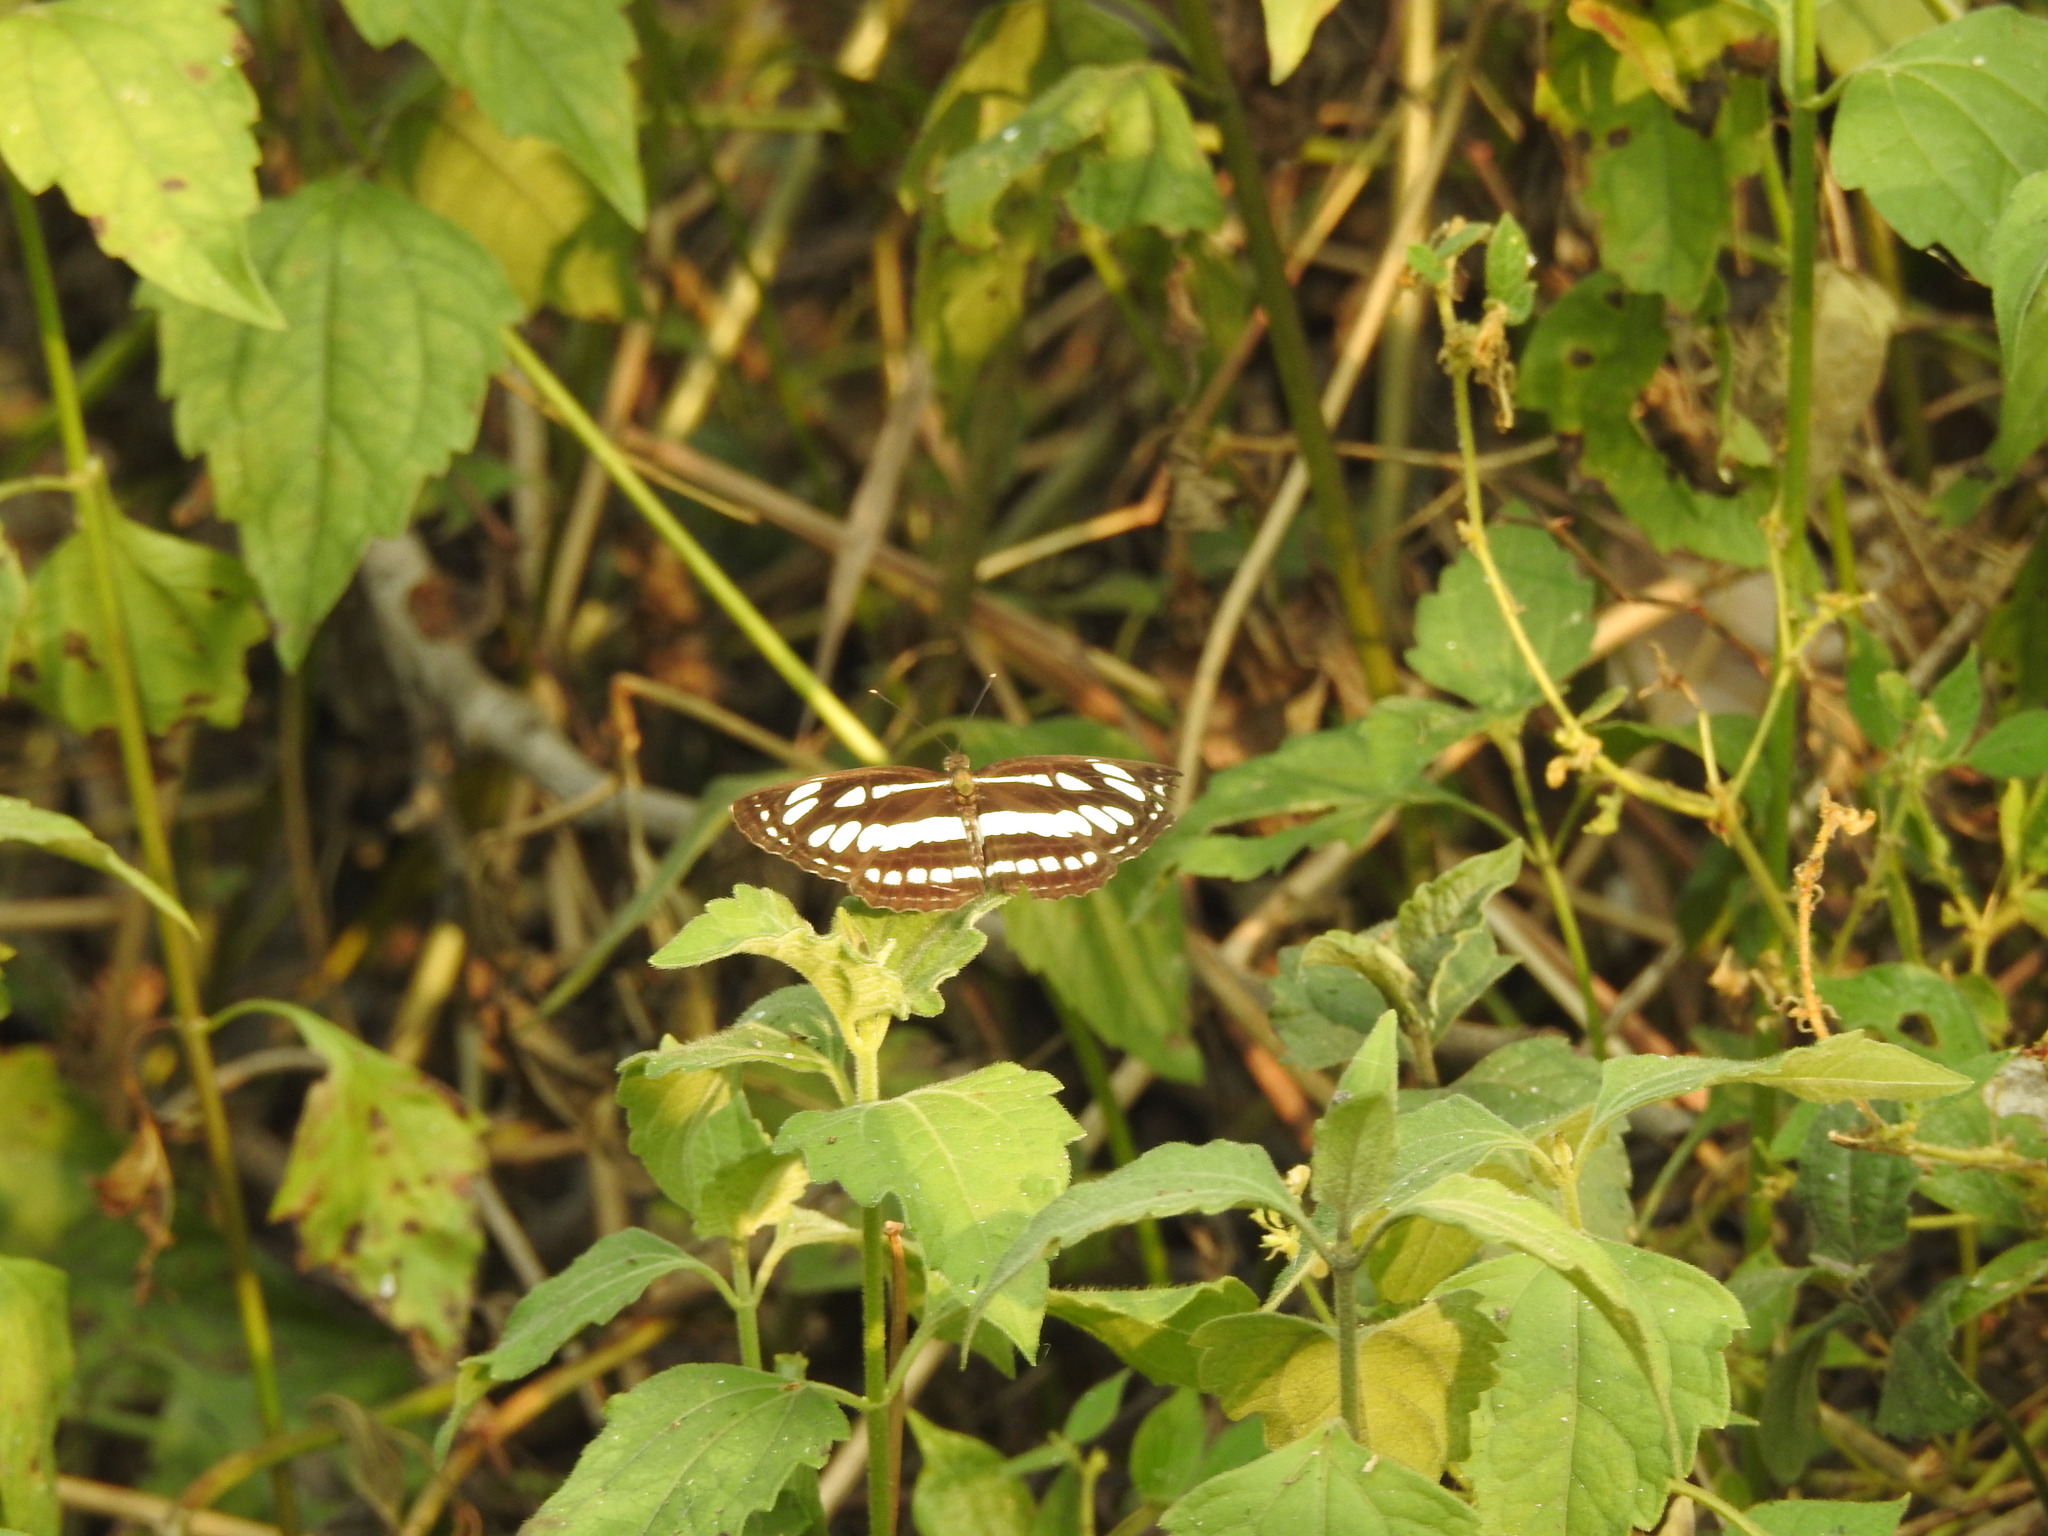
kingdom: Animalia
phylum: Arthropoda
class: Insecta
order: Lepidoptera
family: Nymphalidae
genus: Neptis
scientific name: Neptis hylas
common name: Common sailer
